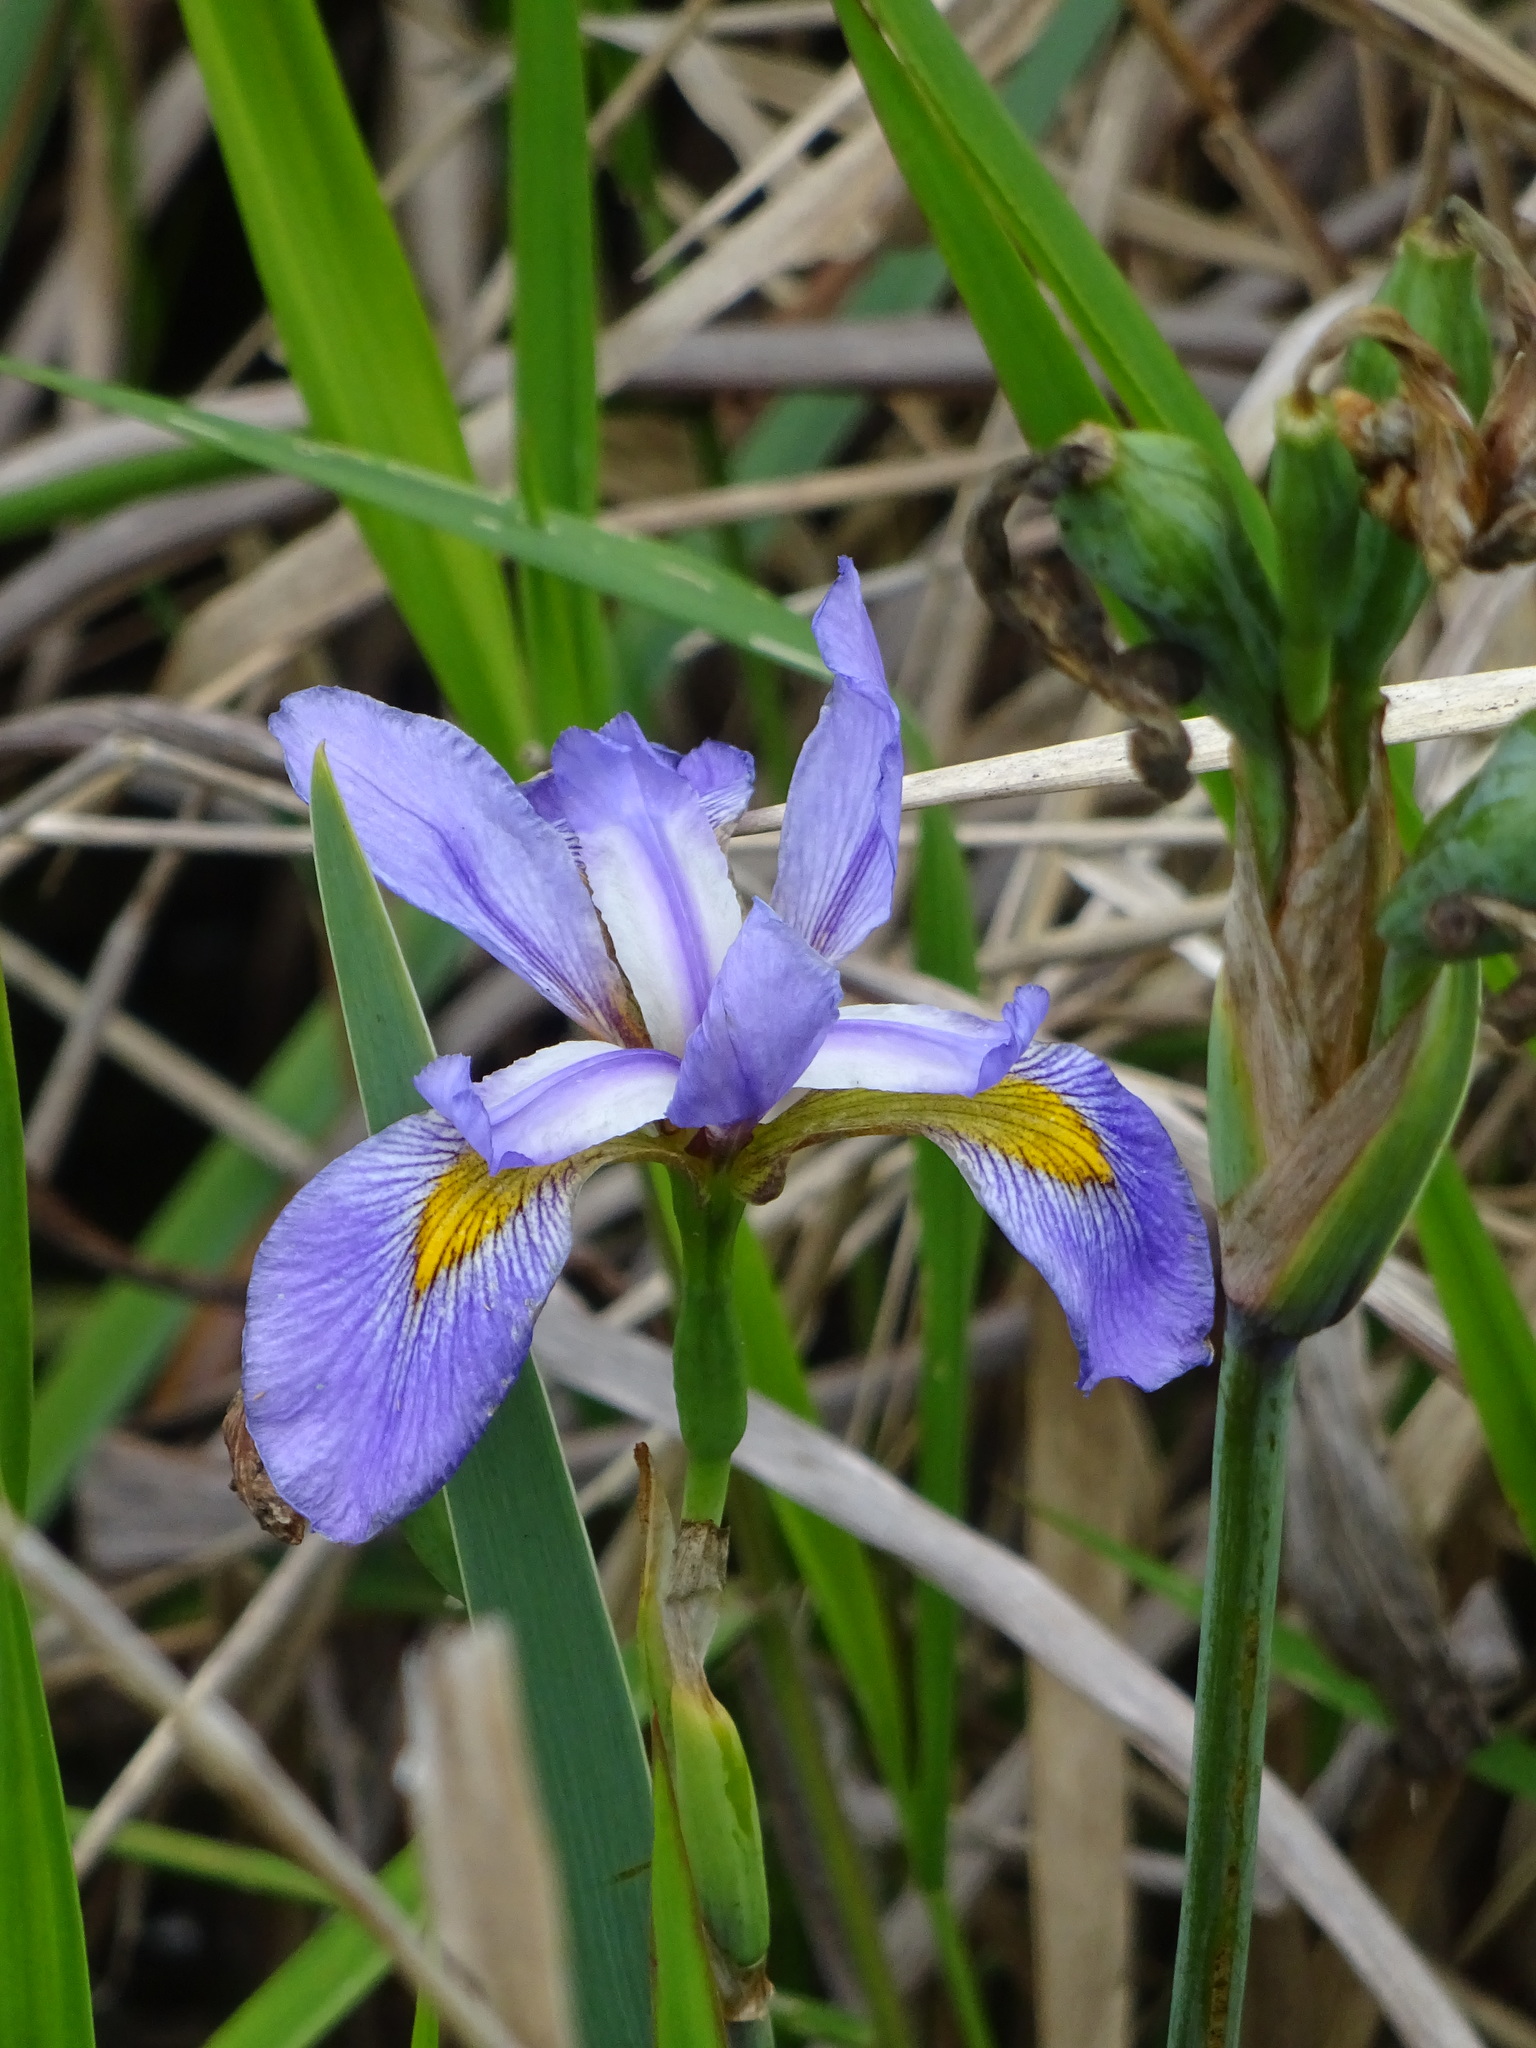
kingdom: Plantae
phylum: Tracheophyta
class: Liliopsida
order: Asparagales
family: Iridaceae
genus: Iris
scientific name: Iris virginica
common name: Southern blue flag
